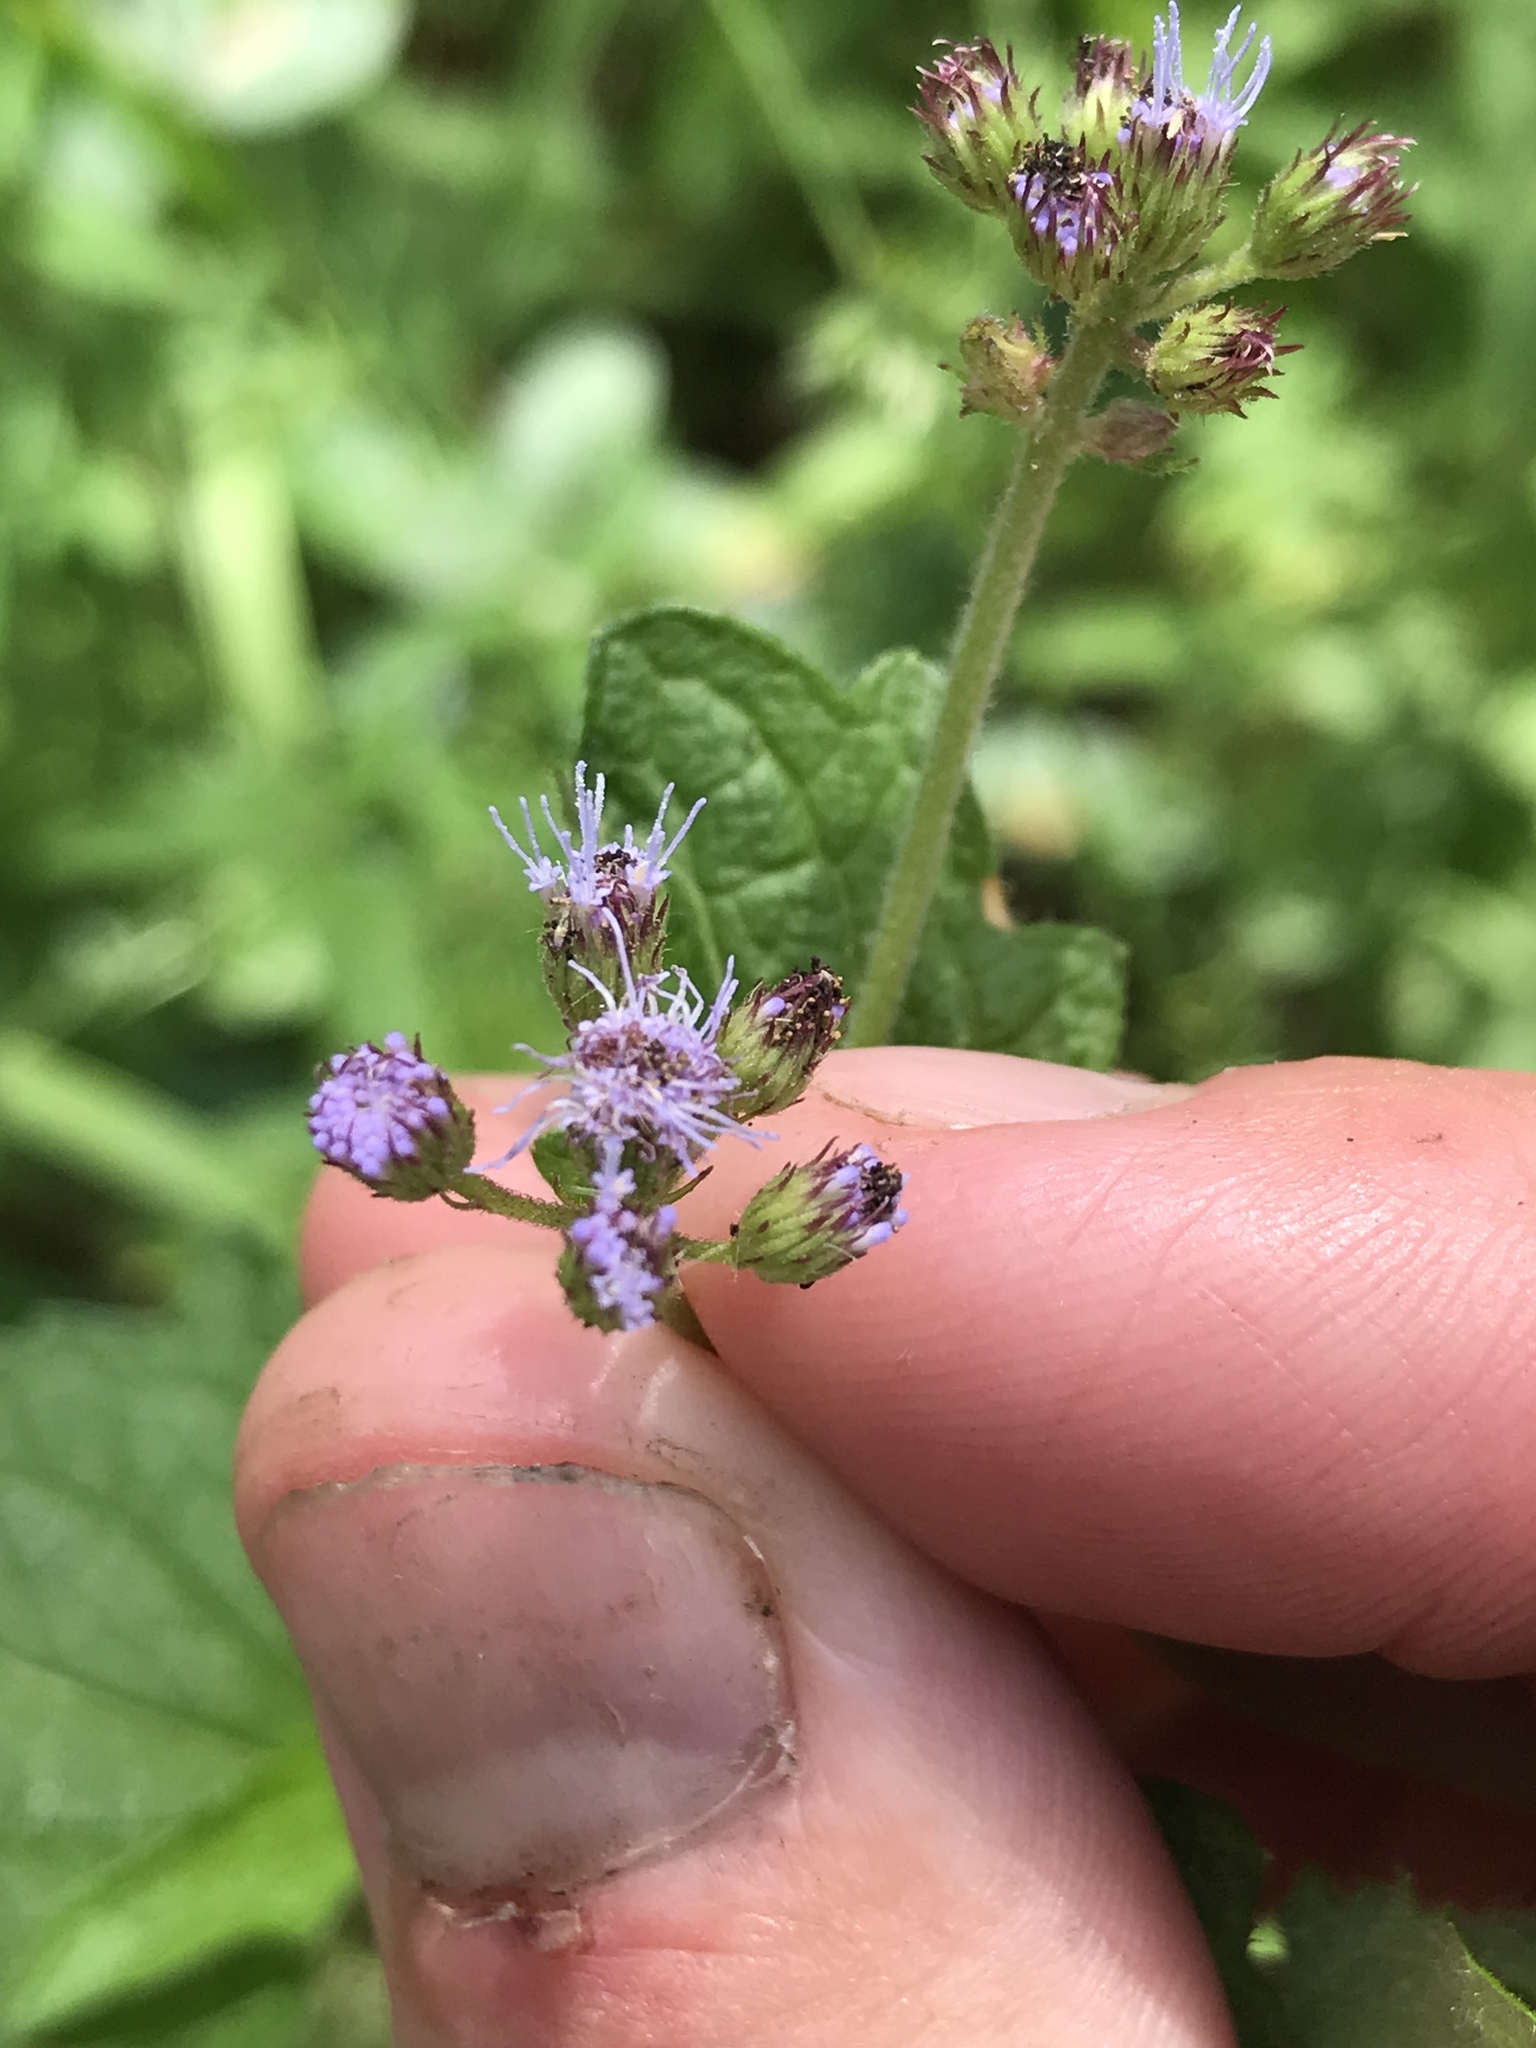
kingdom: Plantae
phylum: Tracheophyta
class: Magnoliopsida
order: Asterales
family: Asteraceae
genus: Conoclinium
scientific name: Conoclinium coelestinum
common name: Blue mistflower
